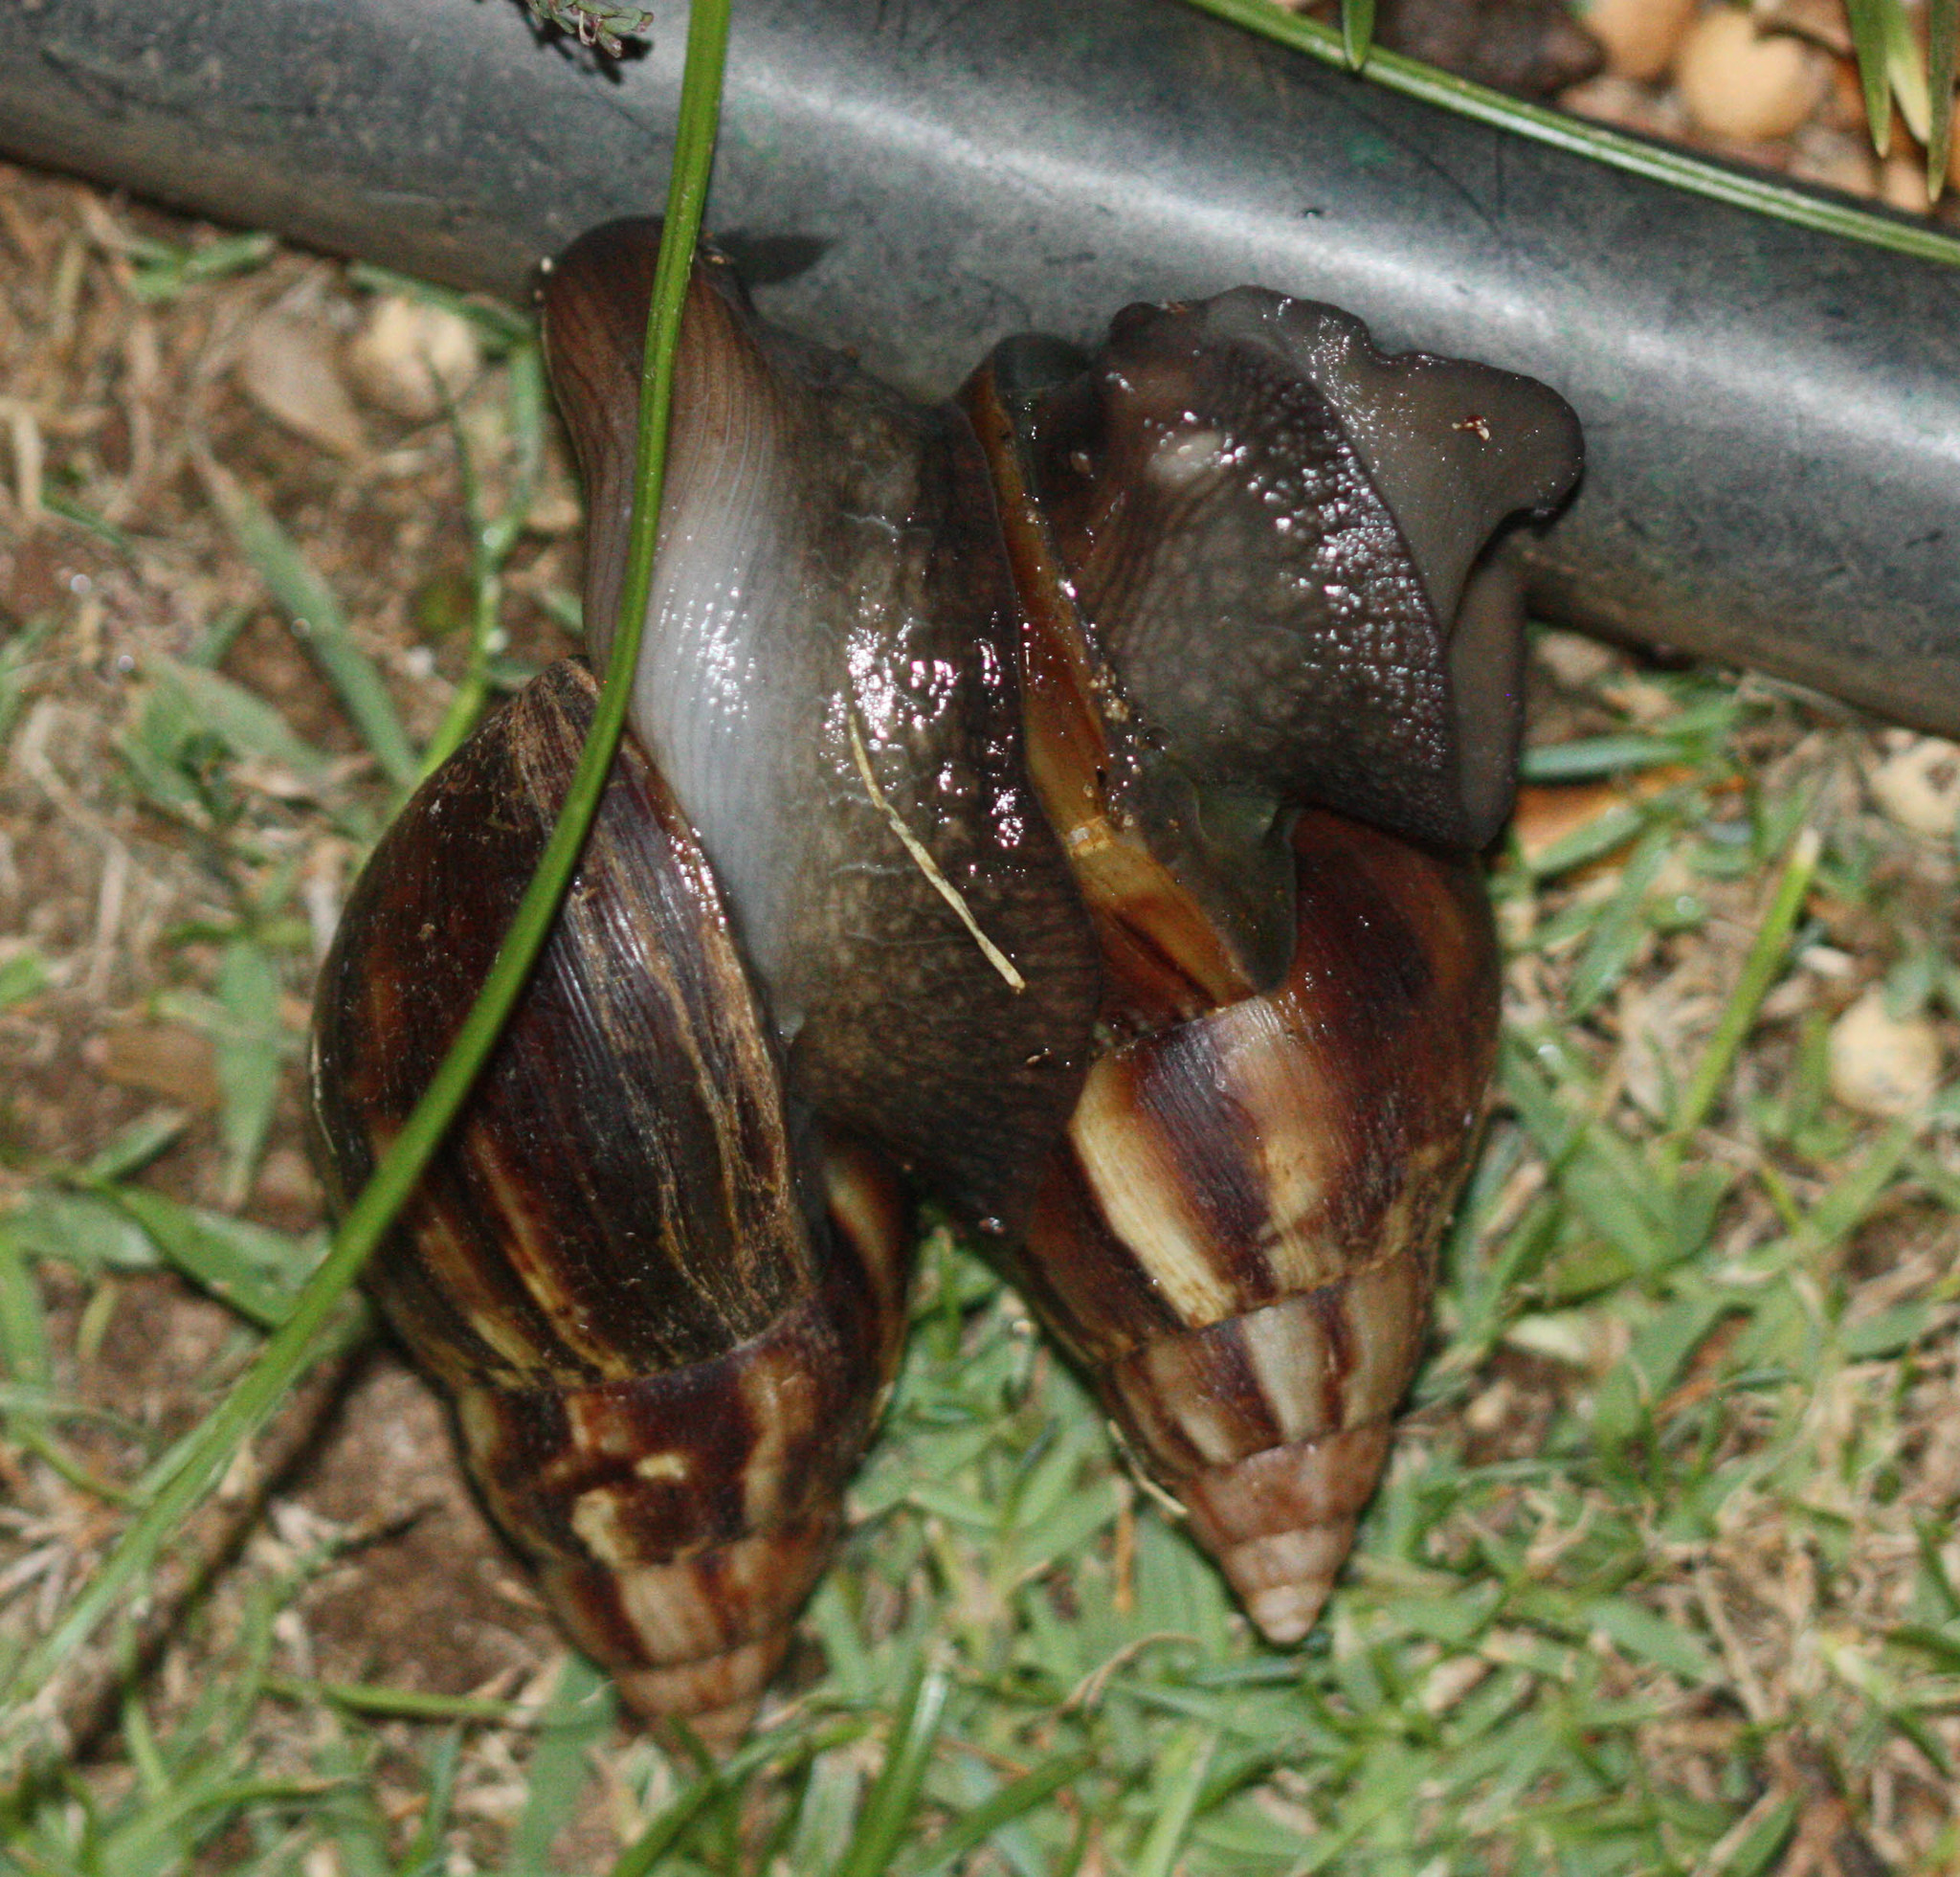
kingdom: Animalia
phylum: Mollusca
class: Gastropoda
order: Stylommatophora
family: Achatinidae
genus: Lissachatina
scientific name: Lissachatina fulica
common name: Giant african snail
